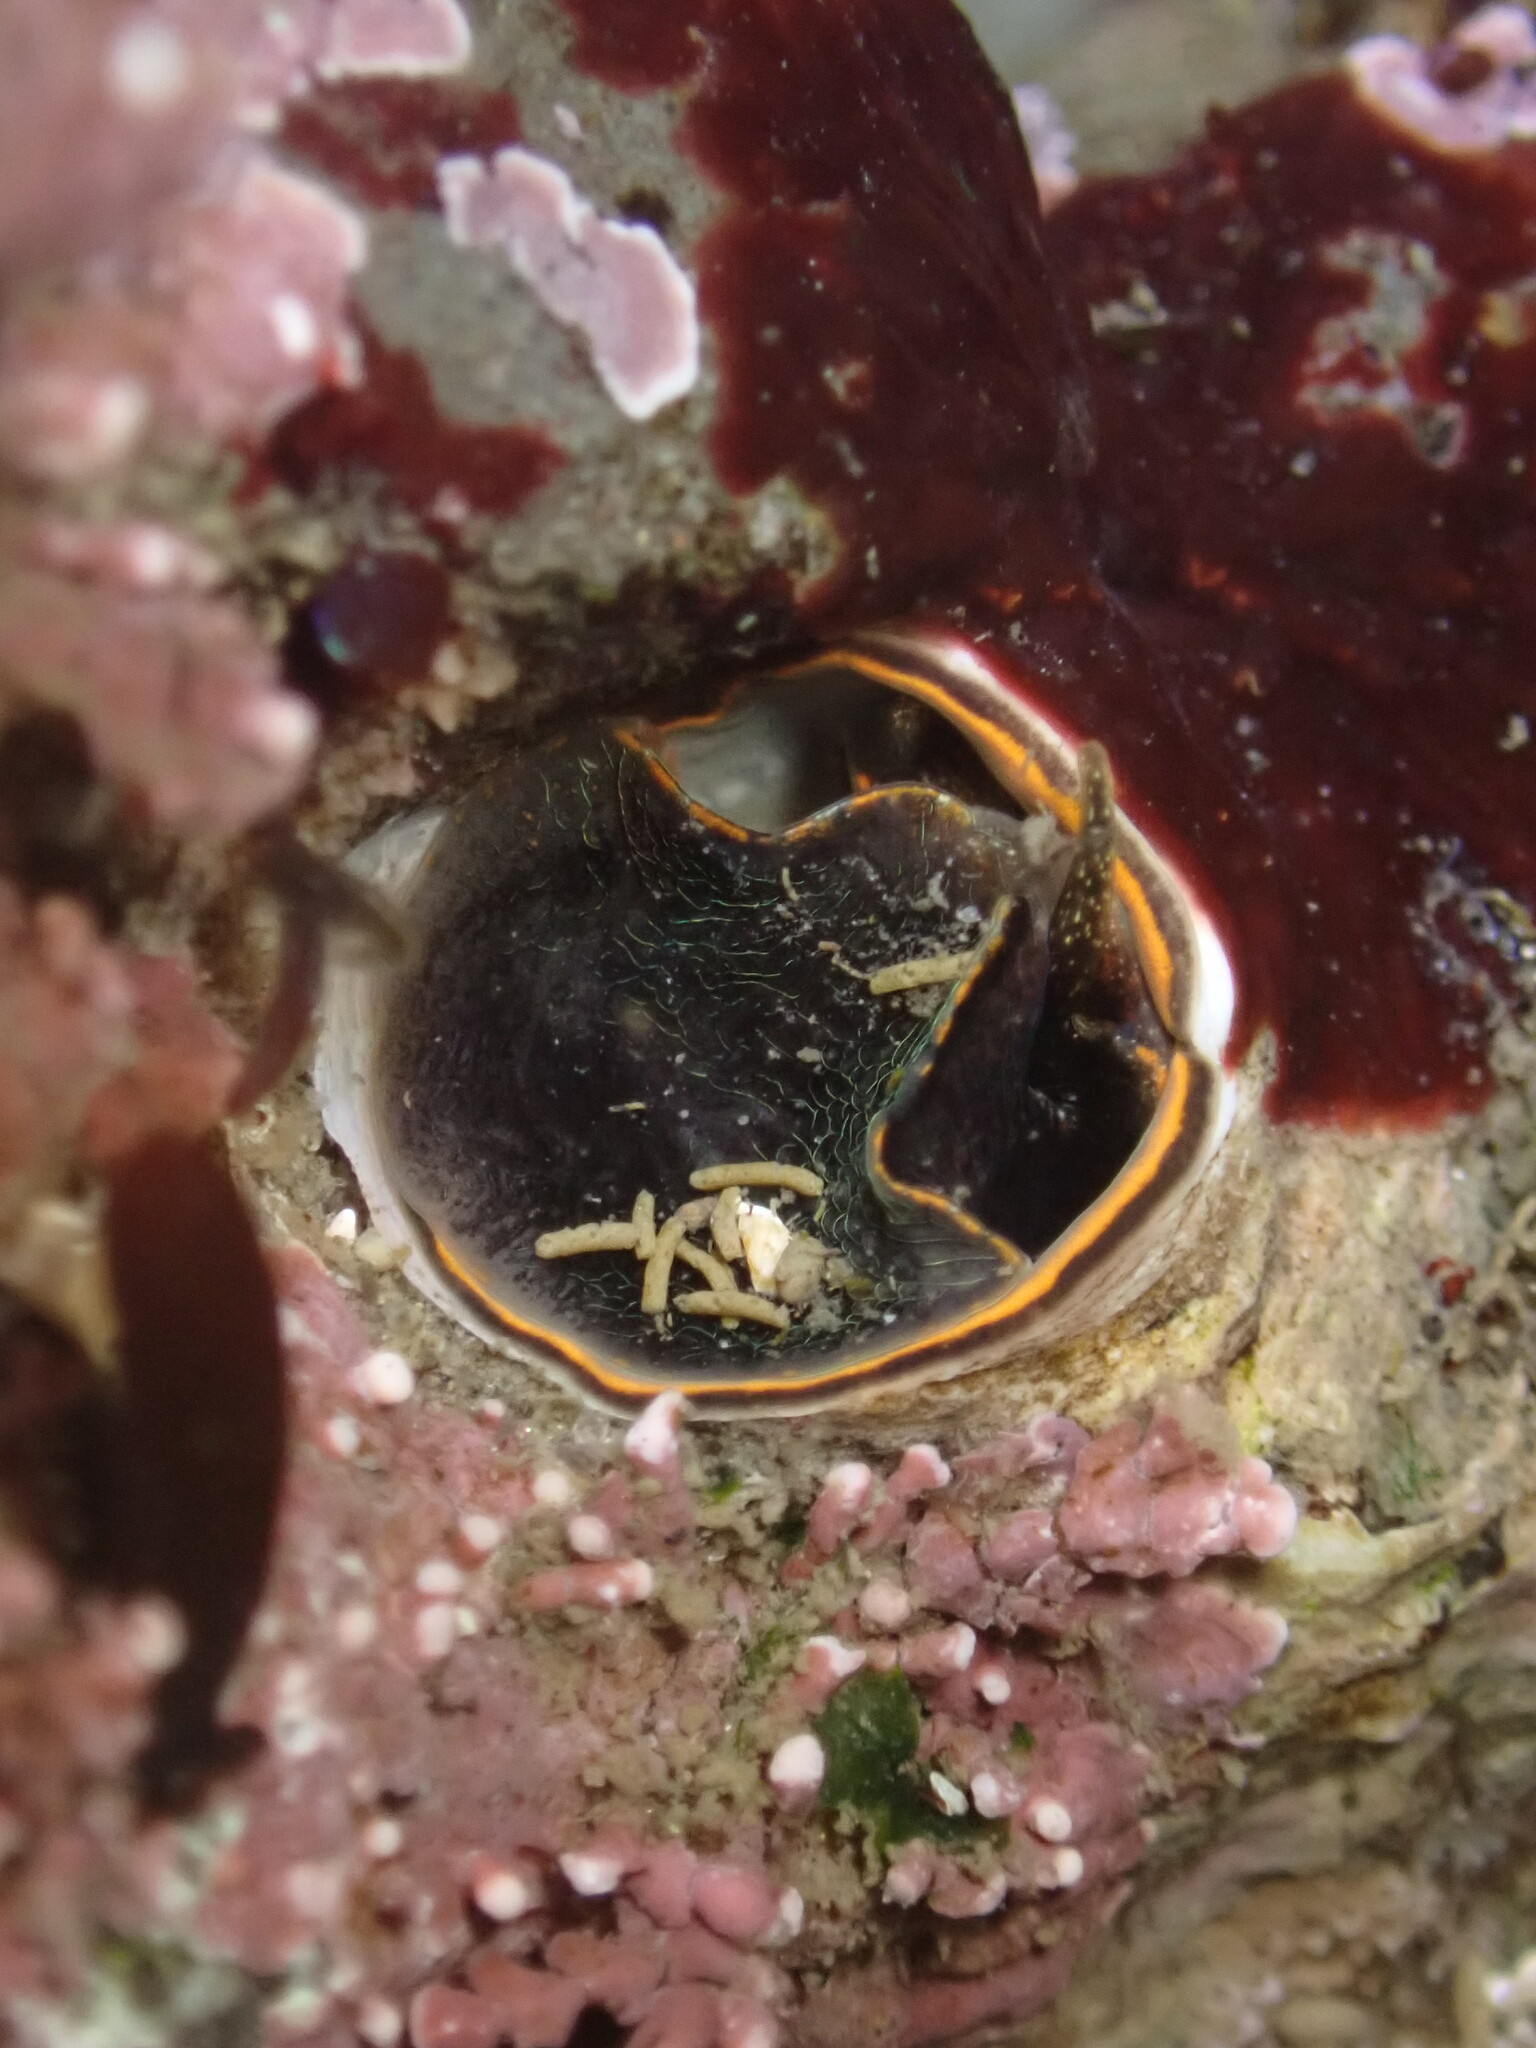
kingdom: Animalia
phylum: Mollusca
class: Gastropoda
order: Littorinimorpha
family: Vermetidae
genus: Thylacodes
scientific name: Thylacodes squamigerus
